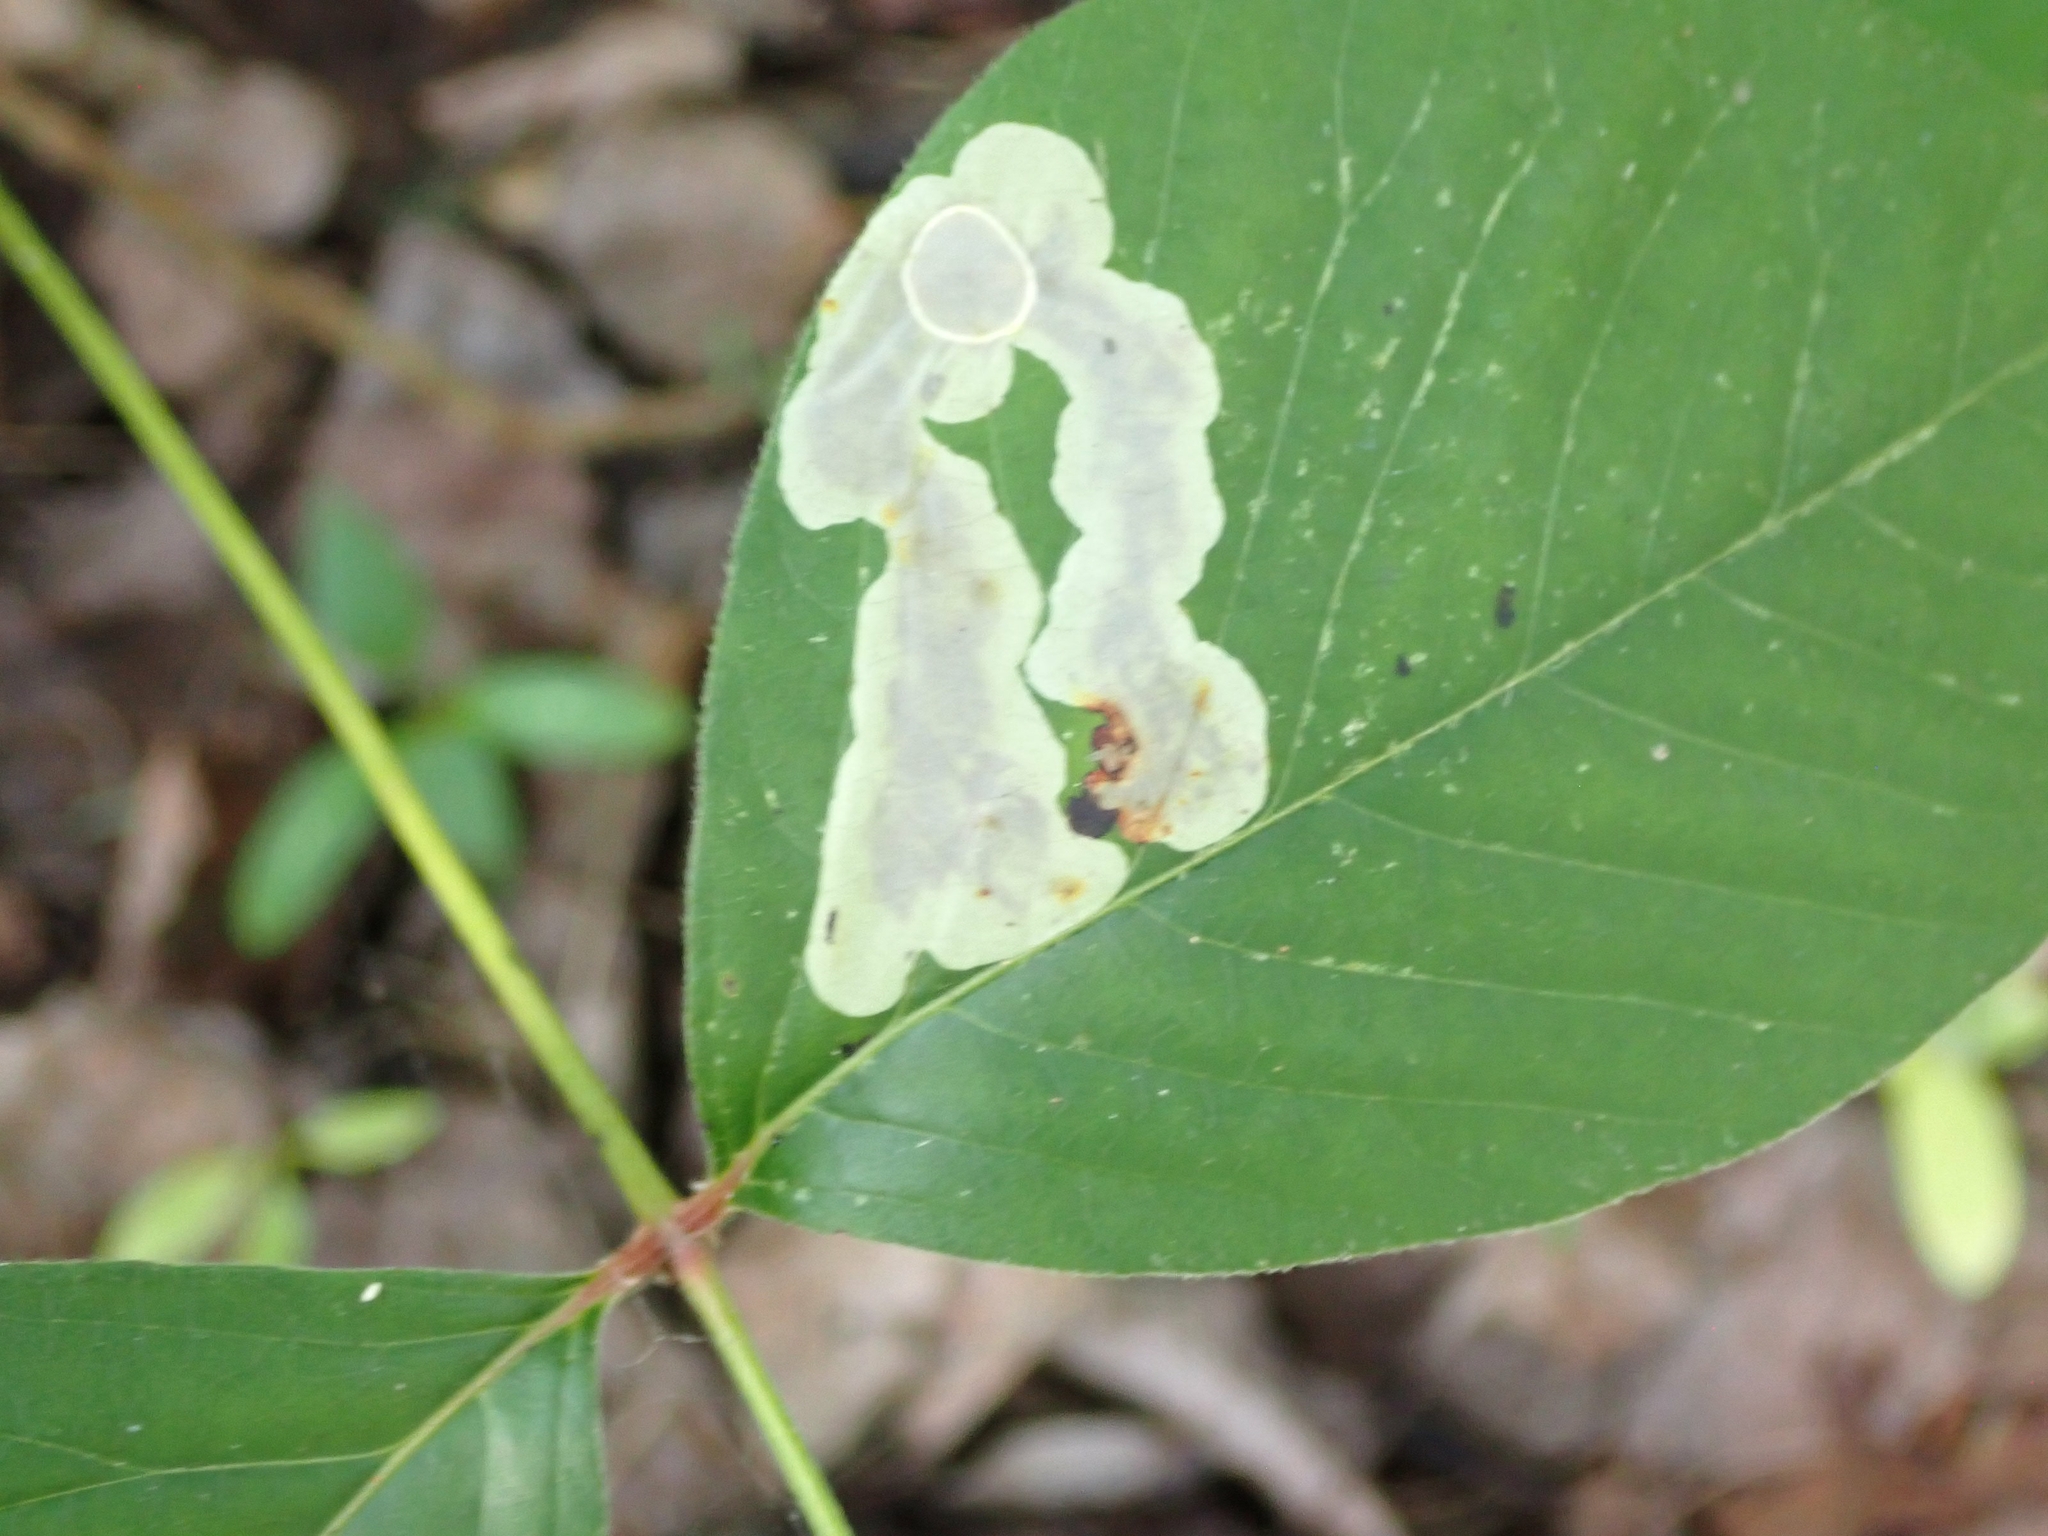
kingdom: Animalia
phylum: Arthropoda
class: Insecta
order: Lepidoptera
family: Gracillariidae
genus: Cameraria
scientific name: Cameraria guttifinitella
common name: Poison ivy leaf-miner moth
